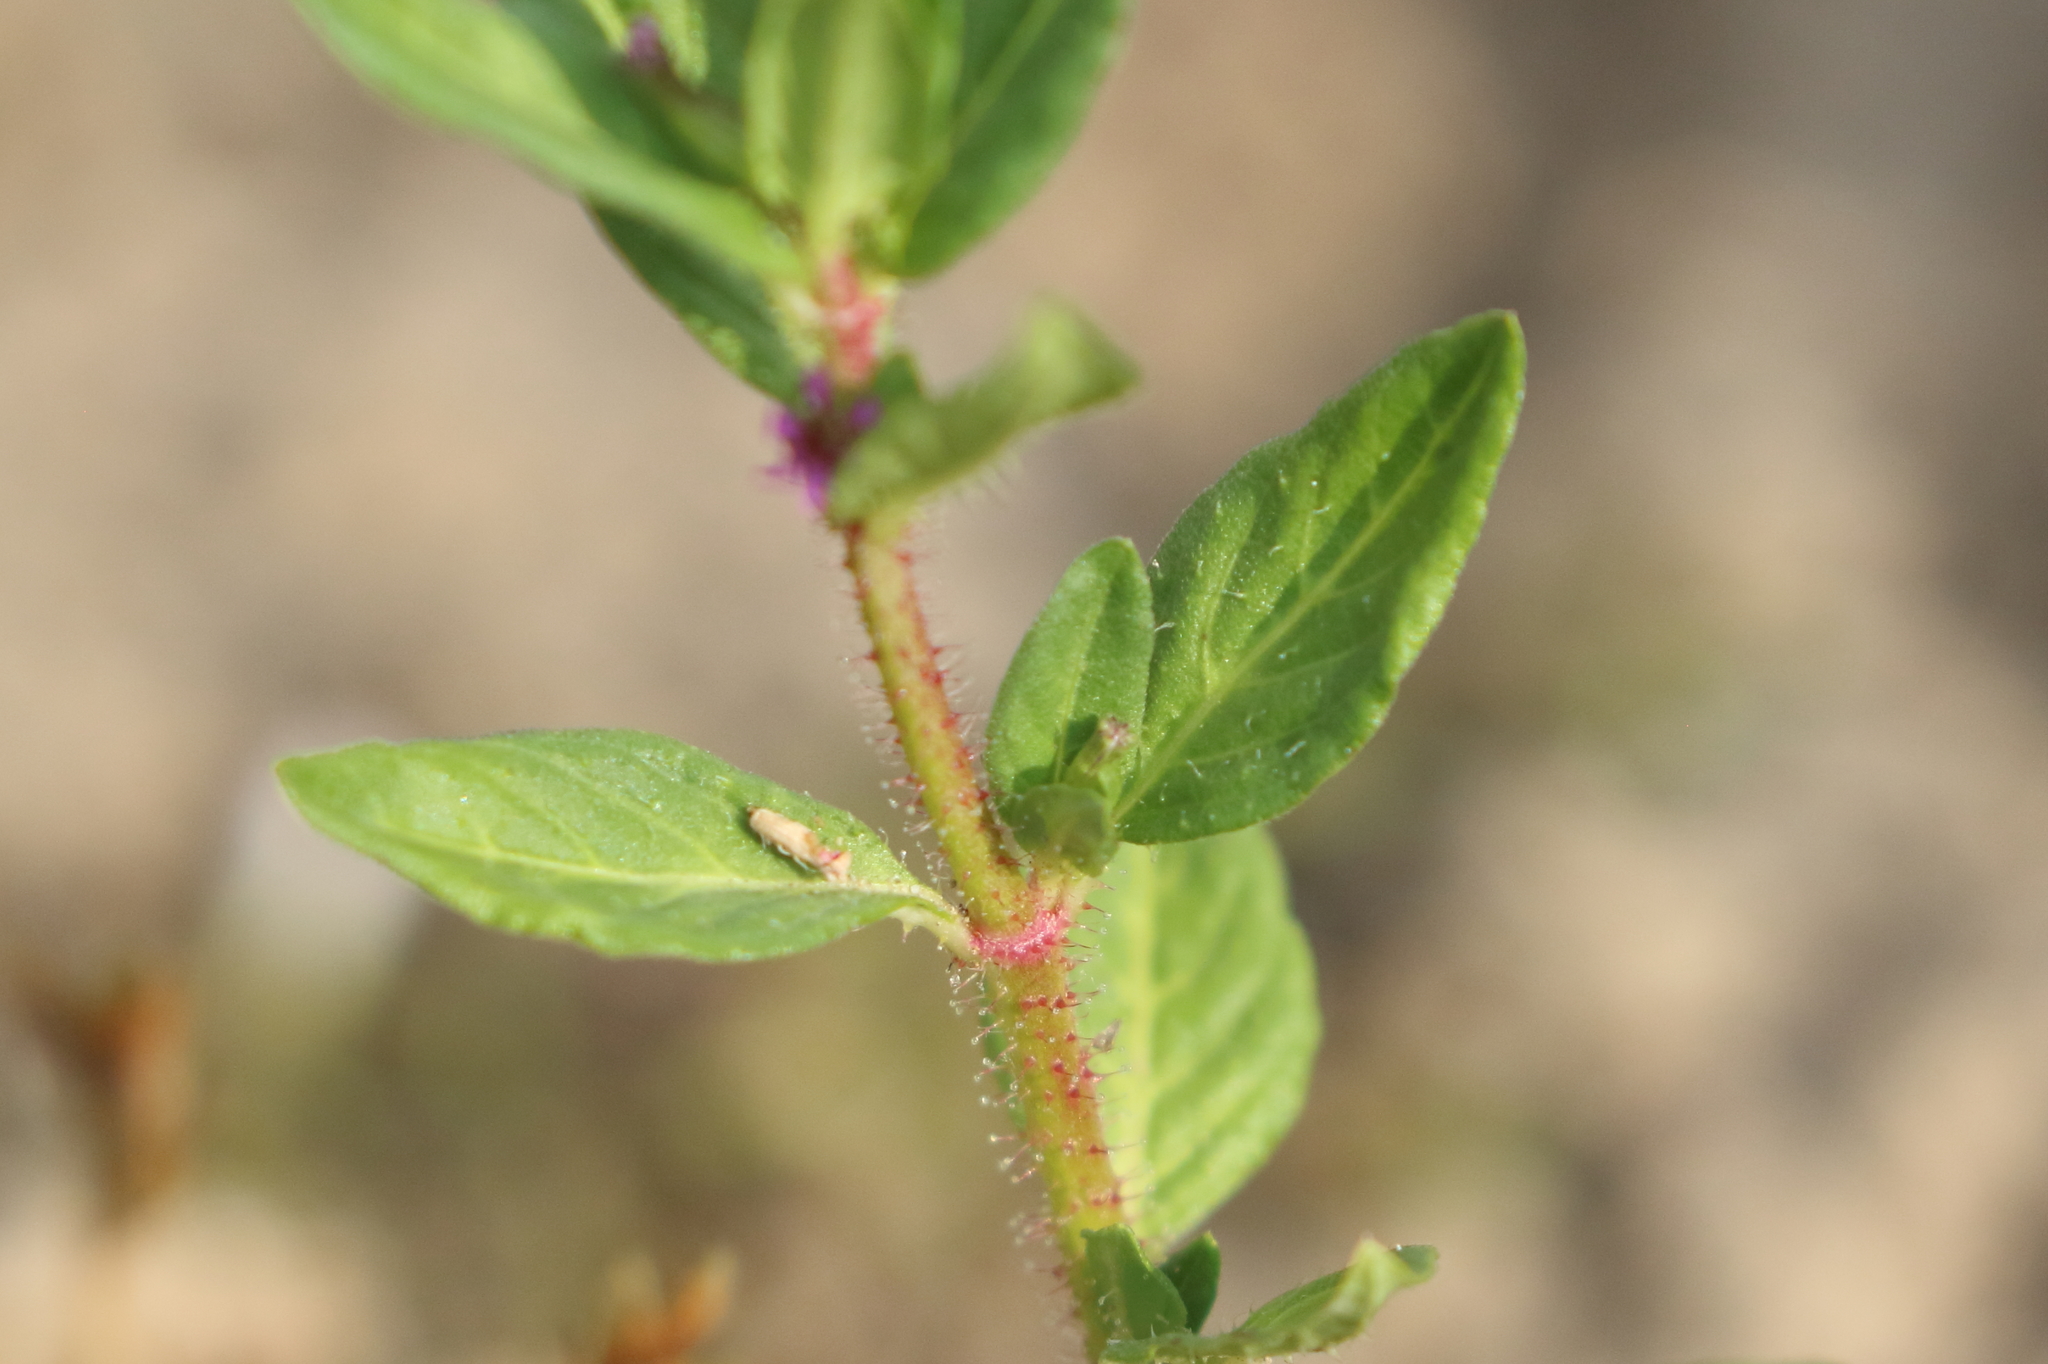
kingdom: Plantae
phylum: Tracheophyta
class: Magnoliopsida
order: Myrtales
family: Lythraceae
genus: Cuphea
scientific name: Cuphea carthagenensis
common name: Colombian waxweed
